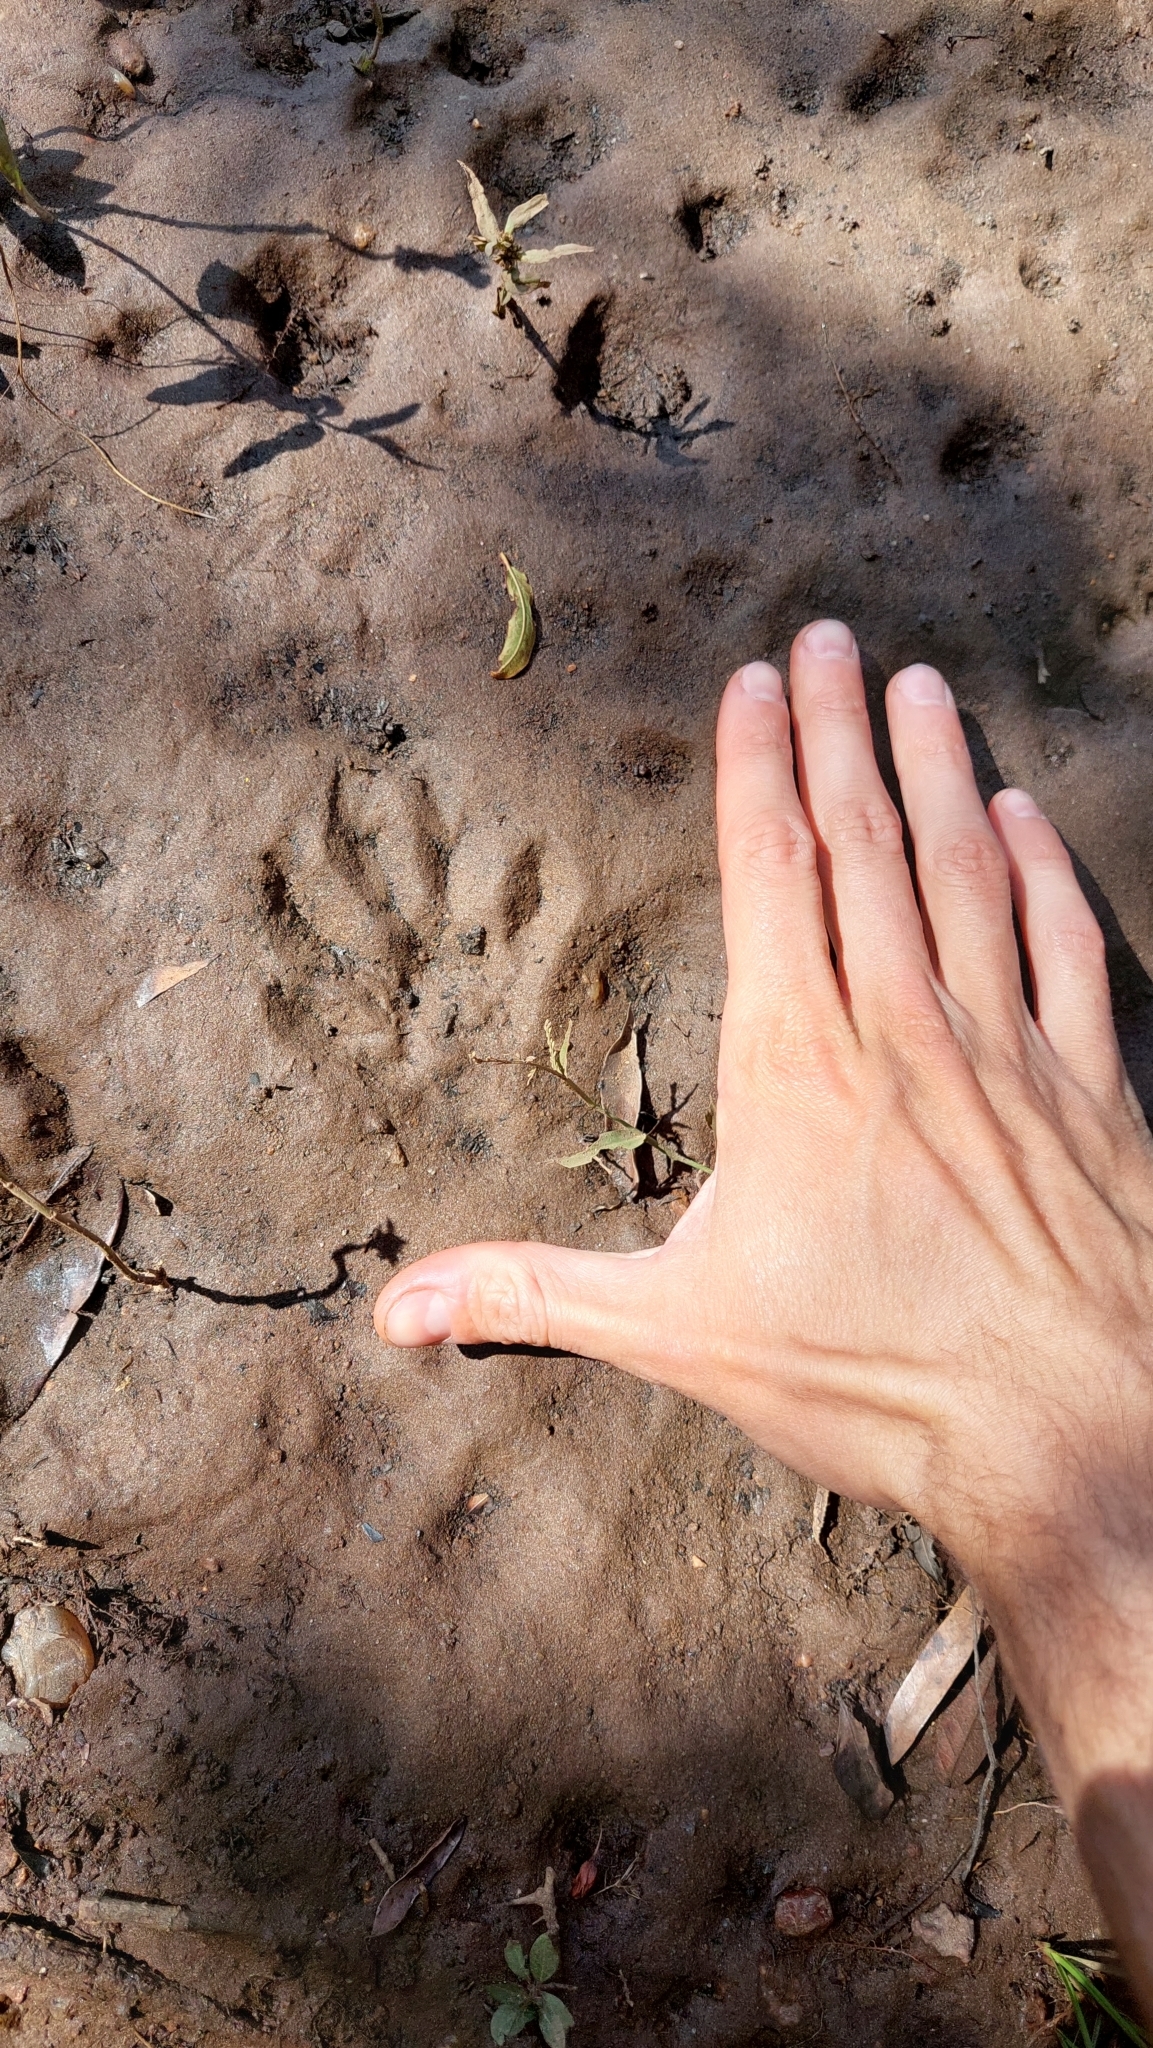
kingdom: Animalia
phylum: Chordata
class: Mammalia
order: Carnivora
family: Procyonidae
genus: Procyon
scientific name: Procyon cancrivorus
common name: Crab-eating raccoon
